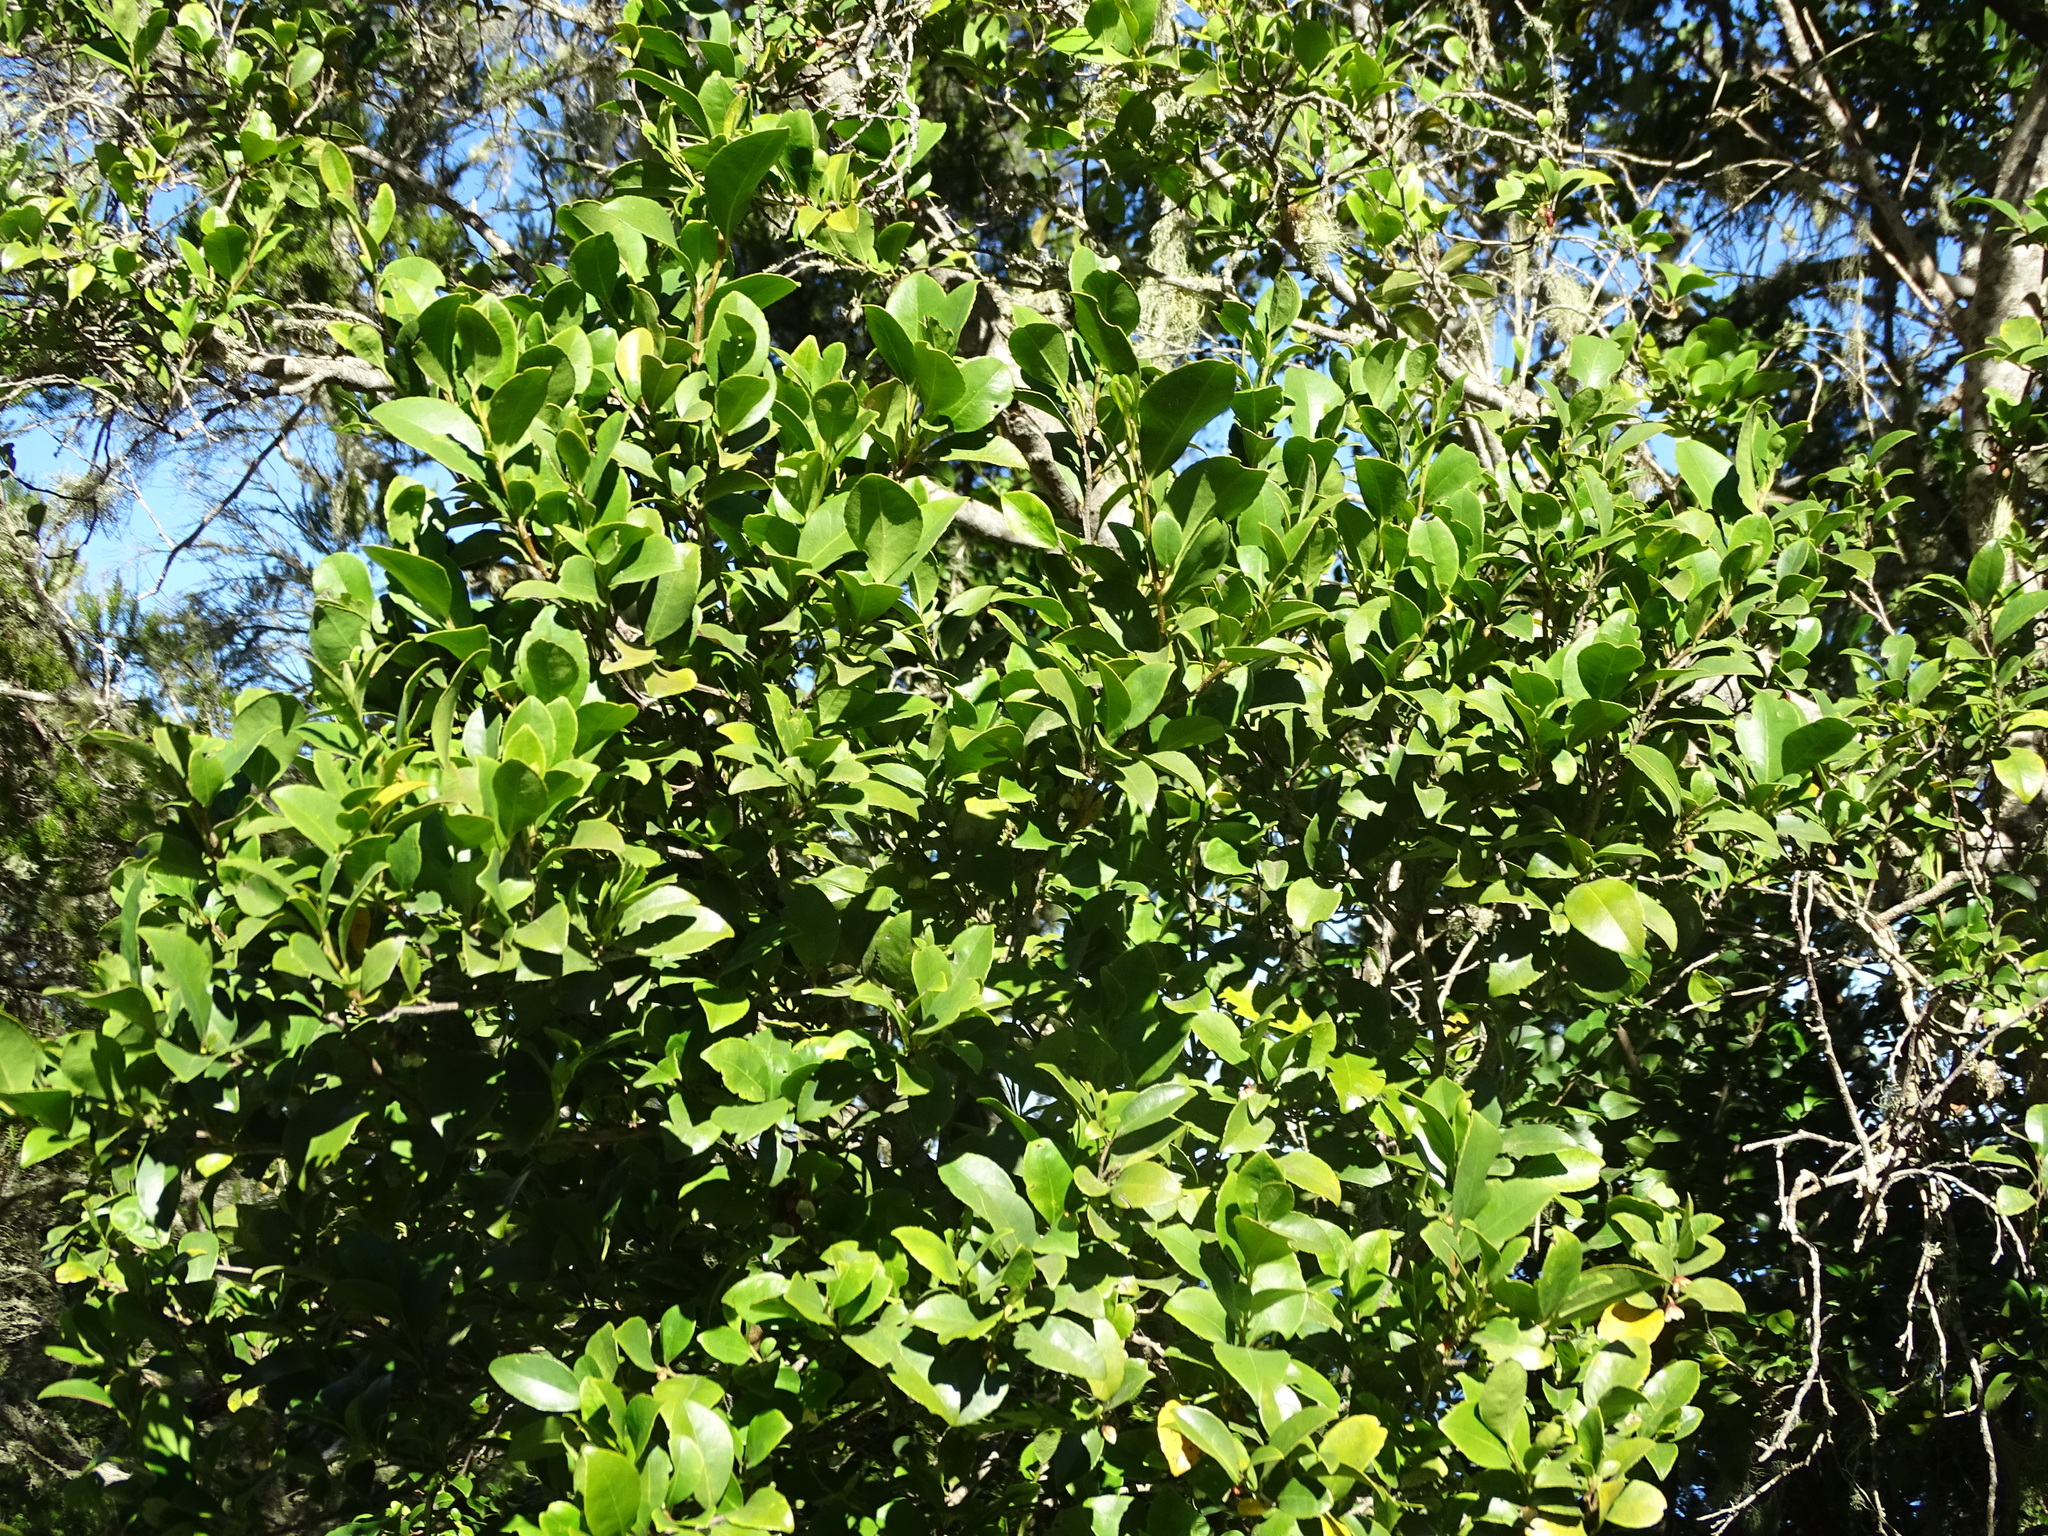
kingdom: Plantae
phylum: Tracheophyta
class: Magnoliopsida
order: Ericales
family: Pentaphylacaceae
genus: Visnea
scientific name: Visnea mocanera
